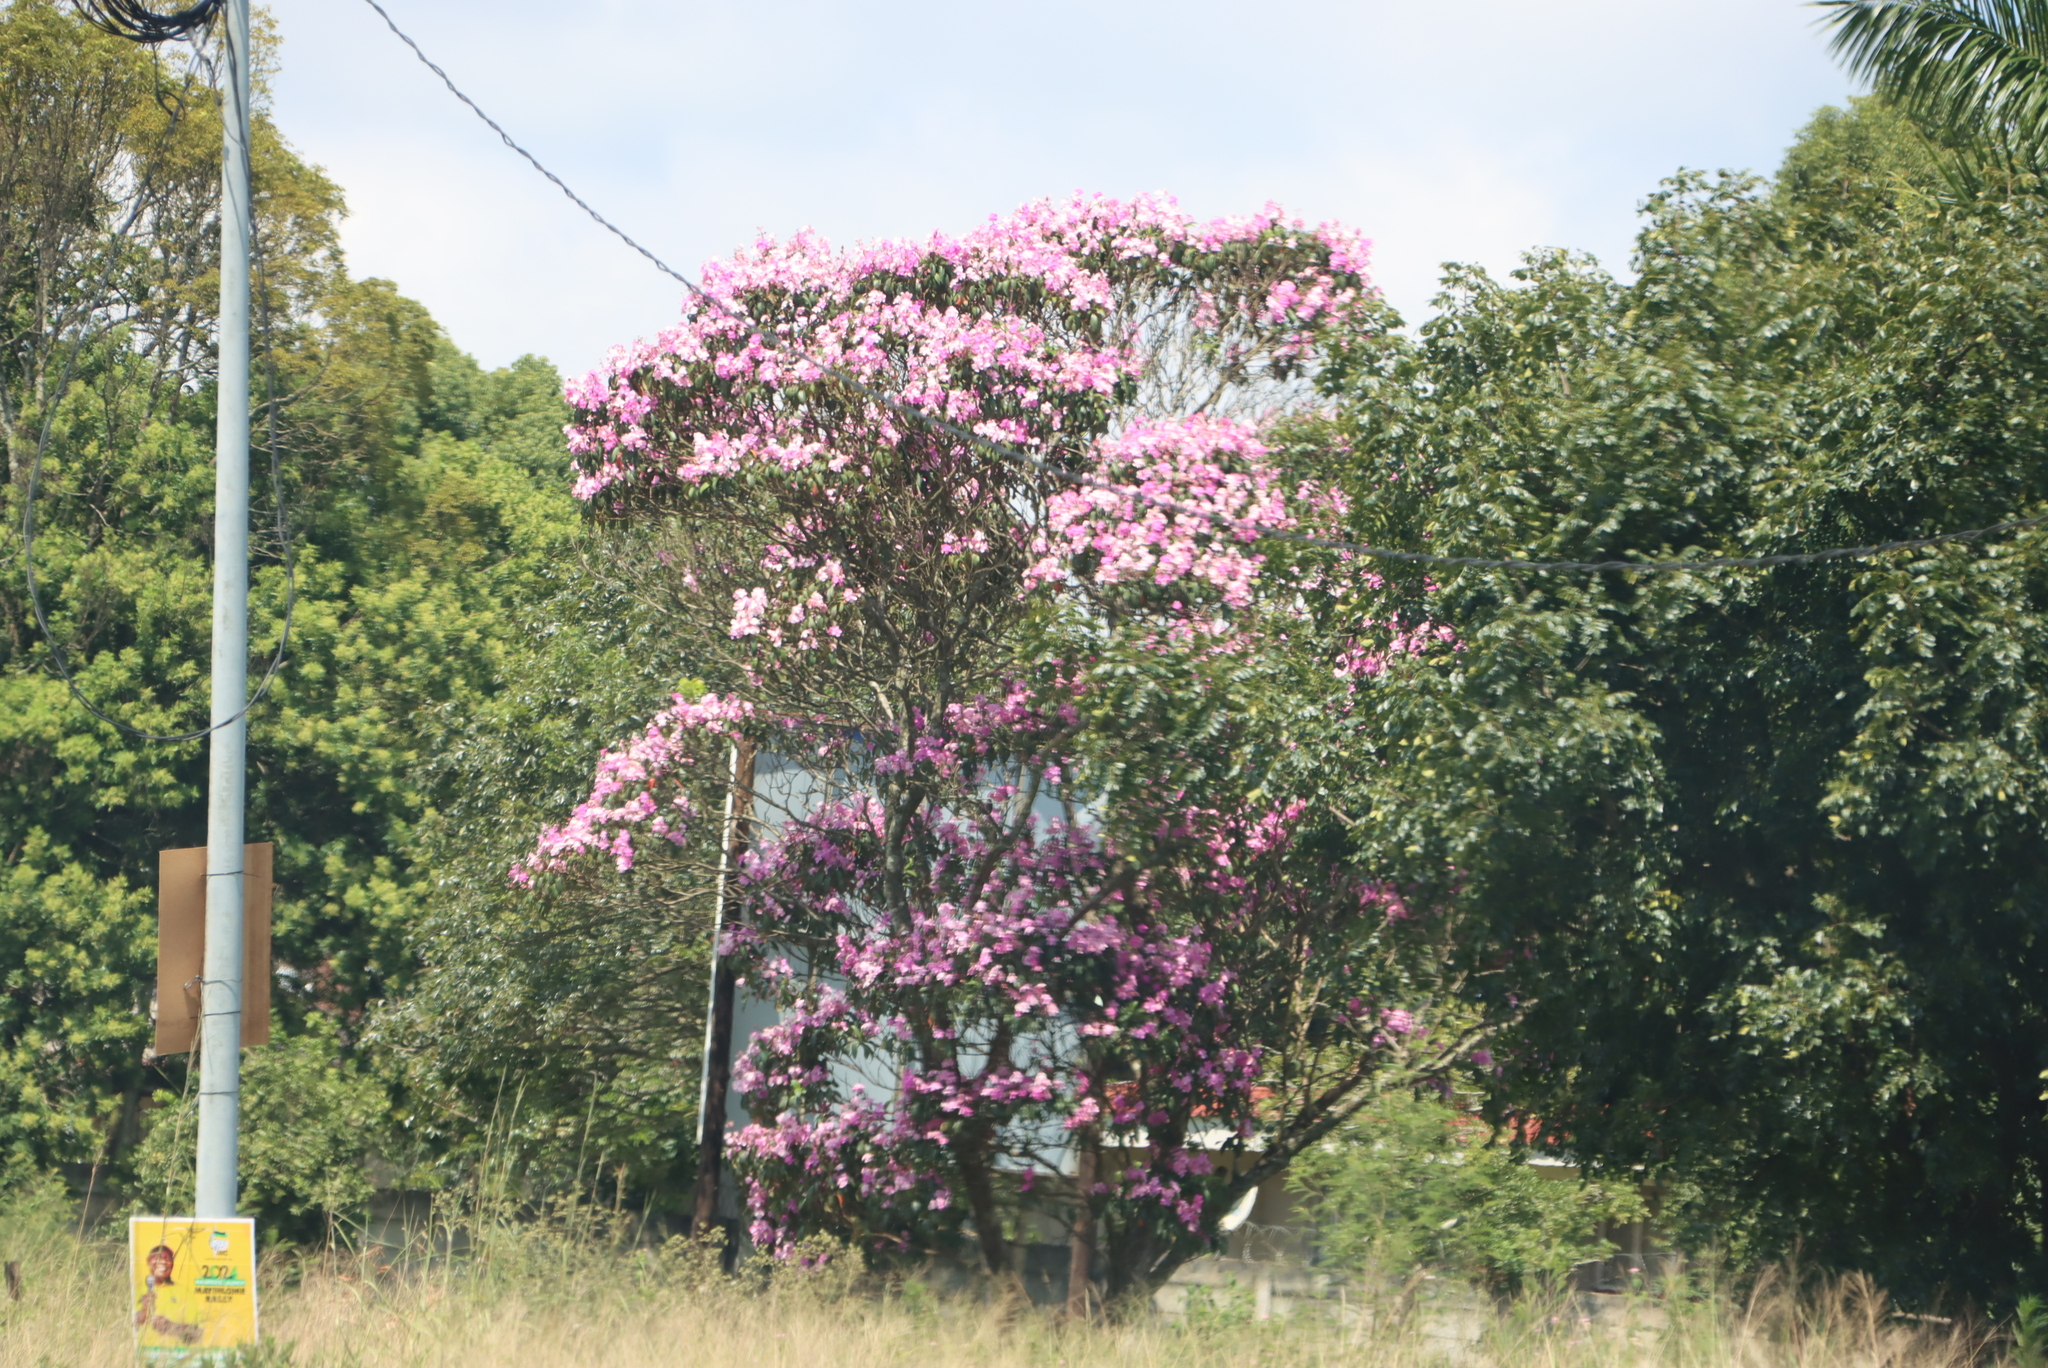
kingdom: Plantae
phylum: Tracheophyta
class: Magnoliopsida
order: Myrtales
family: Melastomataceae
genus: Pleroma
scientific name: Pleroma granulosum
